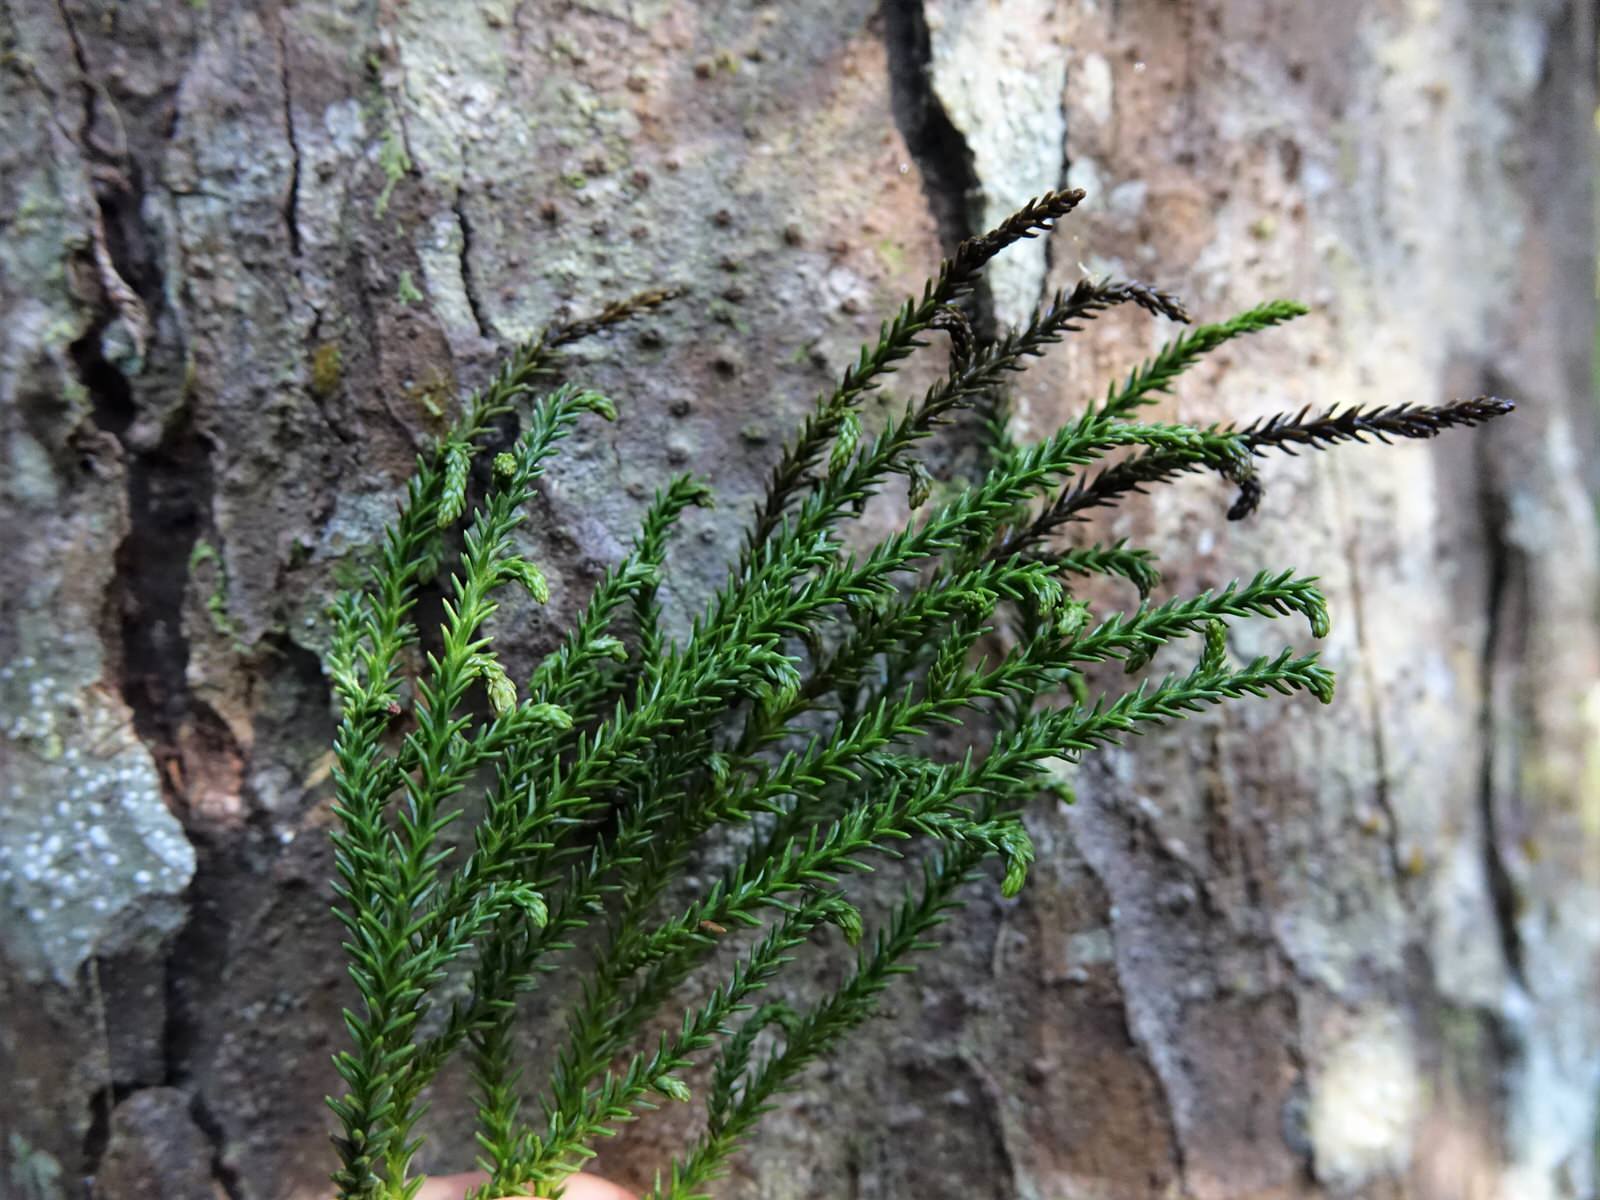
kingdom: Plantae
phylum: Tracheophyta
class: Pinopsida
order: Pinales
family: Podocarpaceae
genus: Dacrydium
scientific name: Dacrydium cupressinum
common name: Red pine
